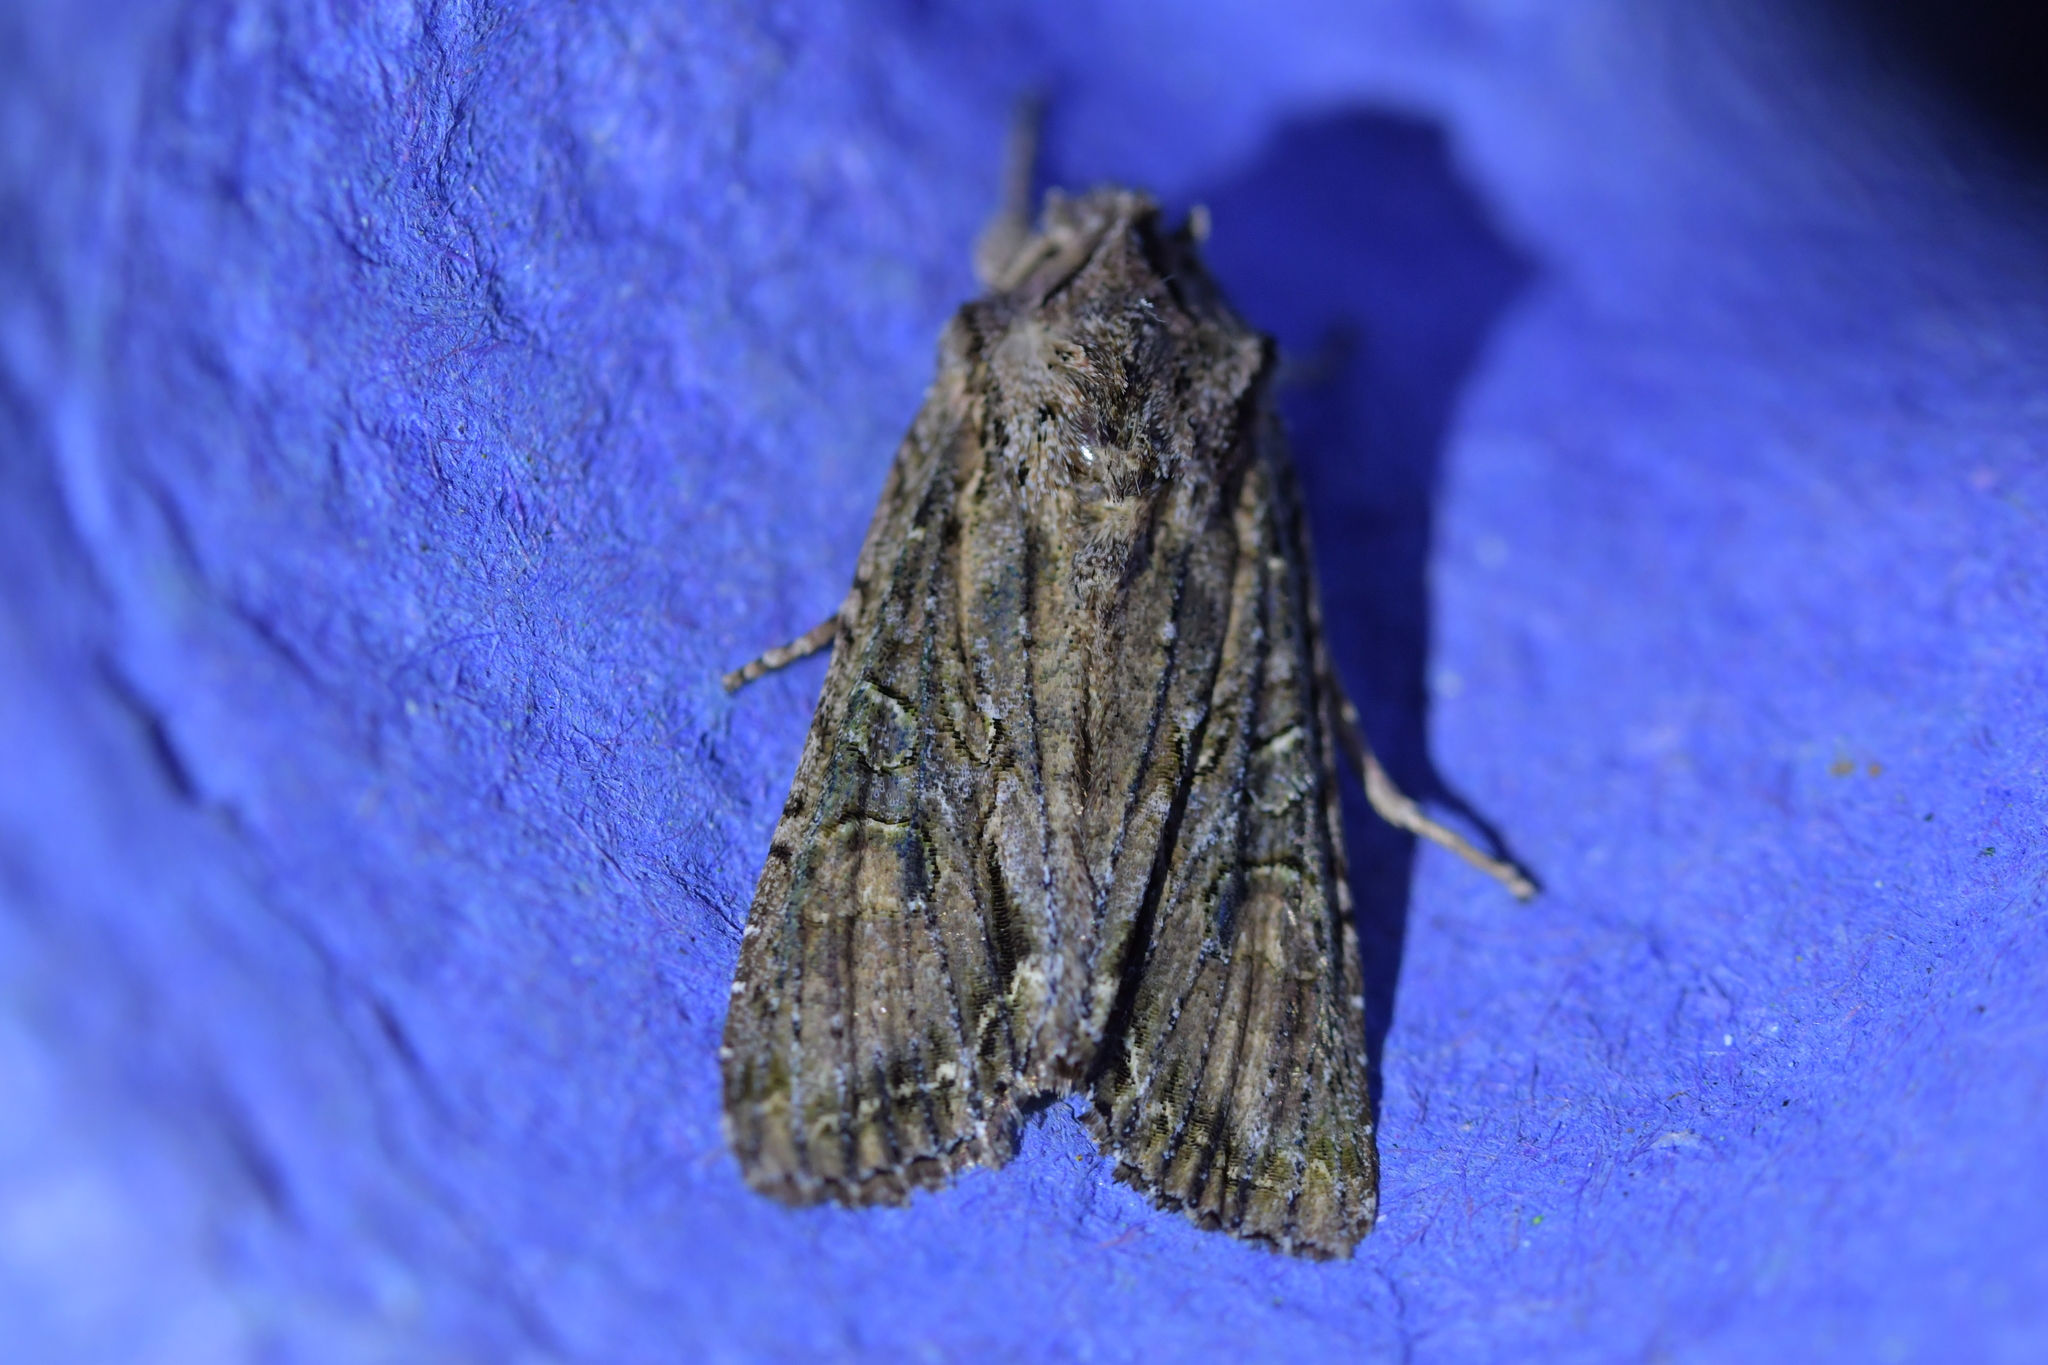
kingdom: Animalia
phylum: Arthropoda
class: Insecta
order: Lepidoptera
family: Noctuidae
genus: Ichneutica
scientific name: Ichneutica mutans
